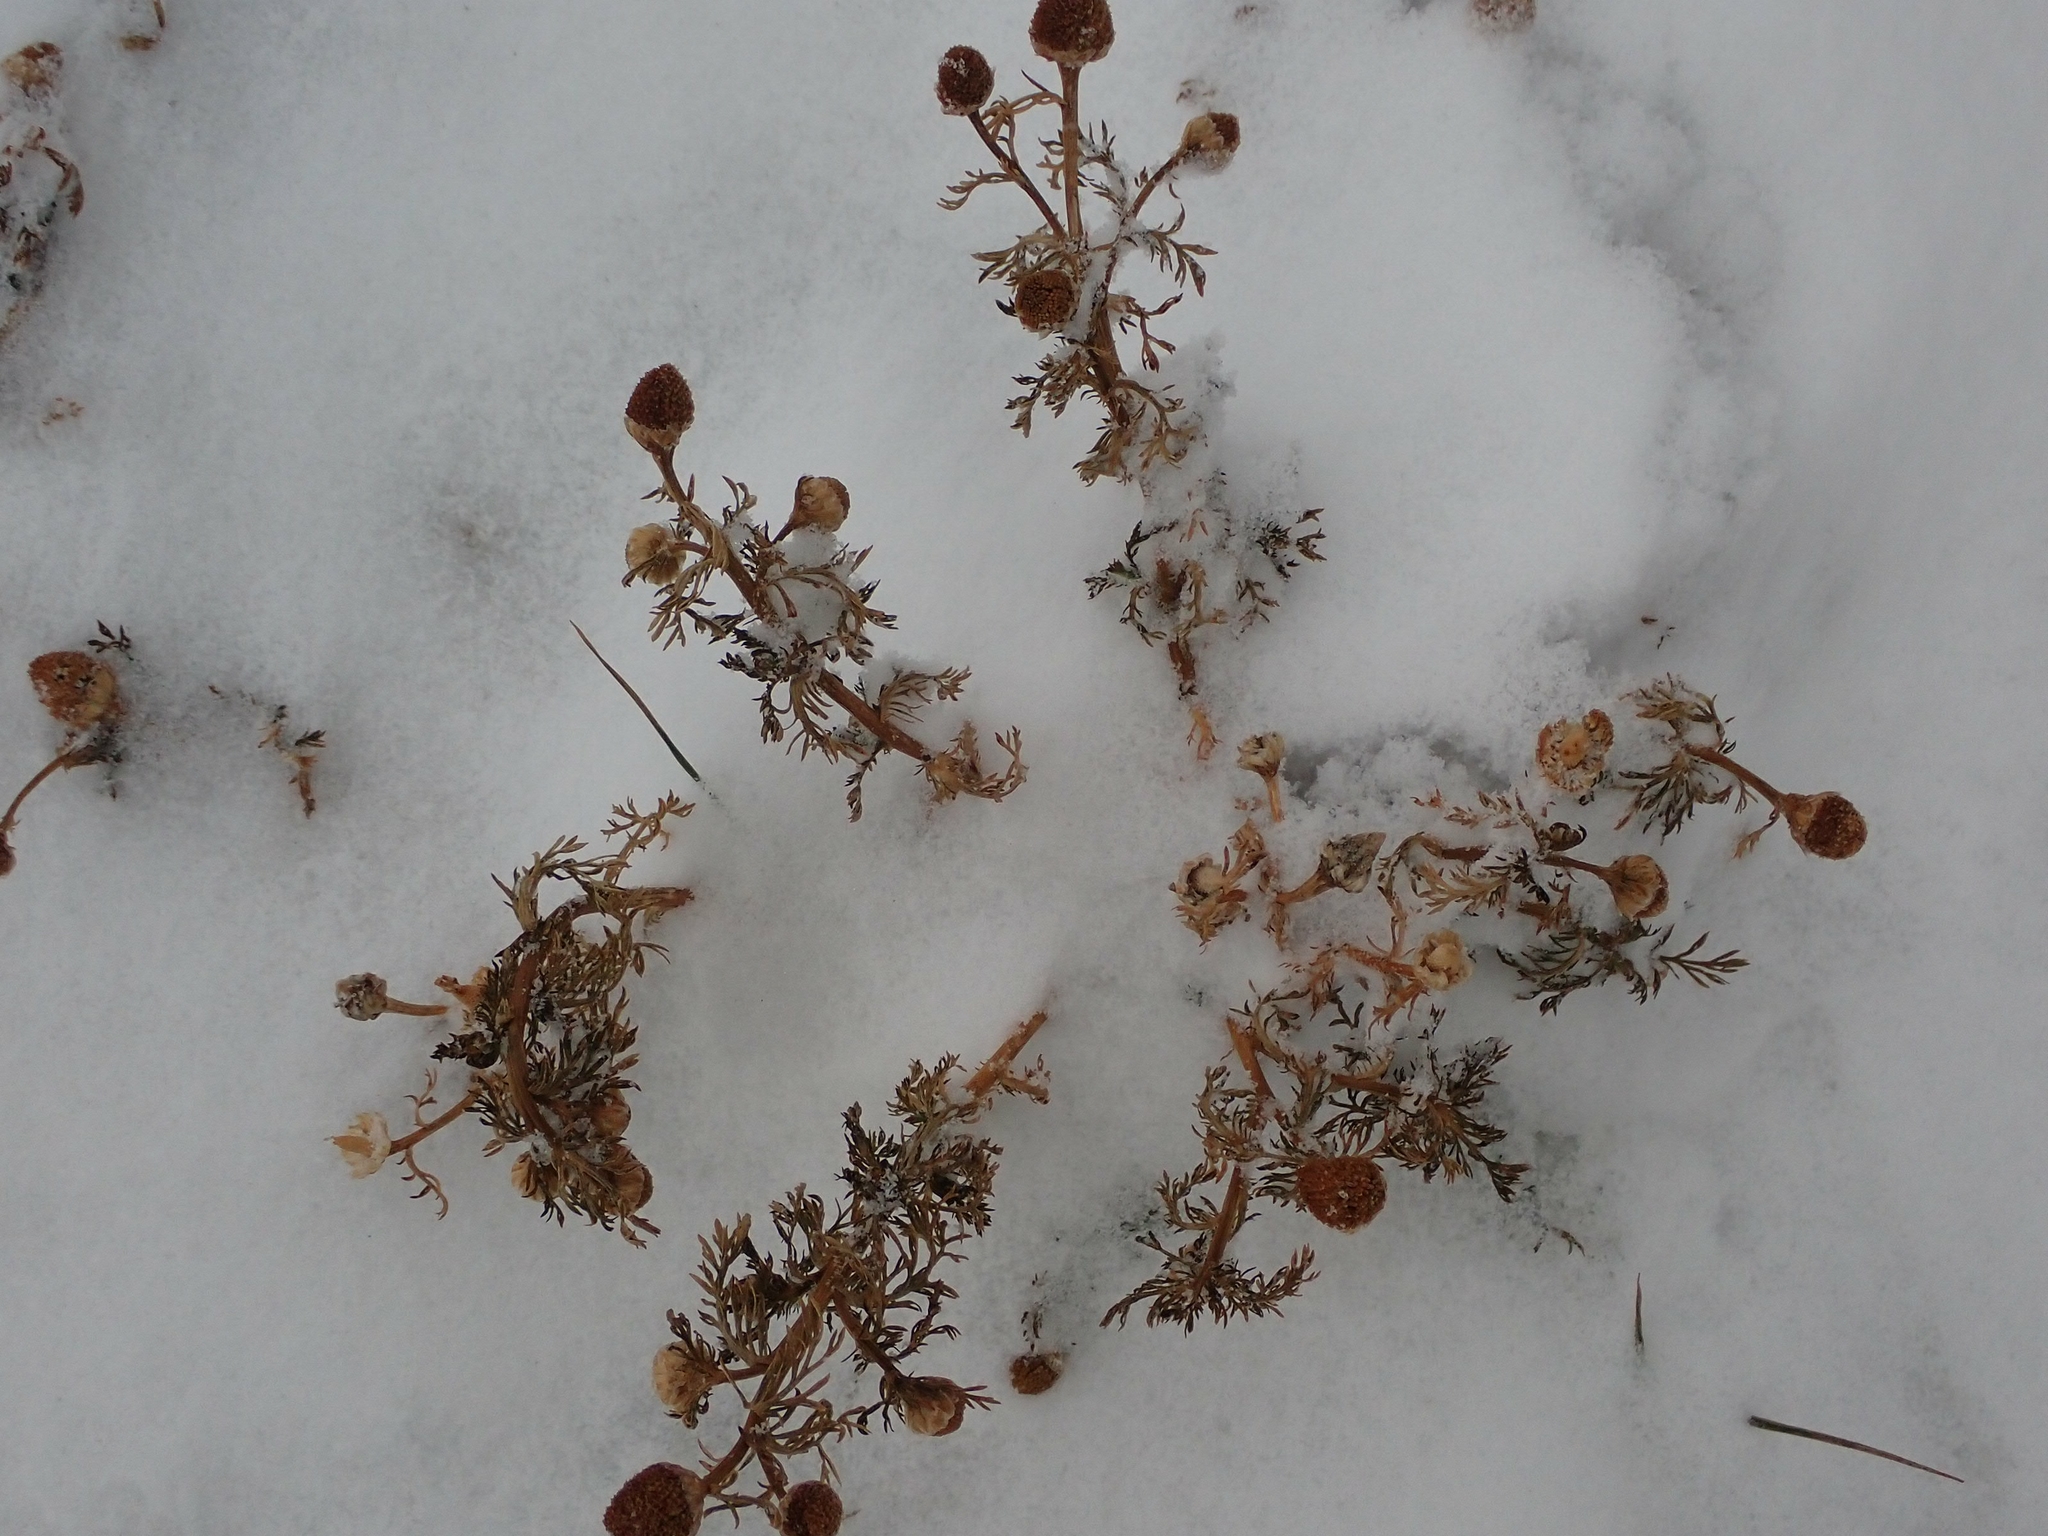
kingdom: Plantae
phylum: Tracheophyta
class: Magnoliopsida
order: Asterales
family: Asteraceae
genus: Matricaria
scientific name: Matricaria discoidea
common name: Disc mayweed
